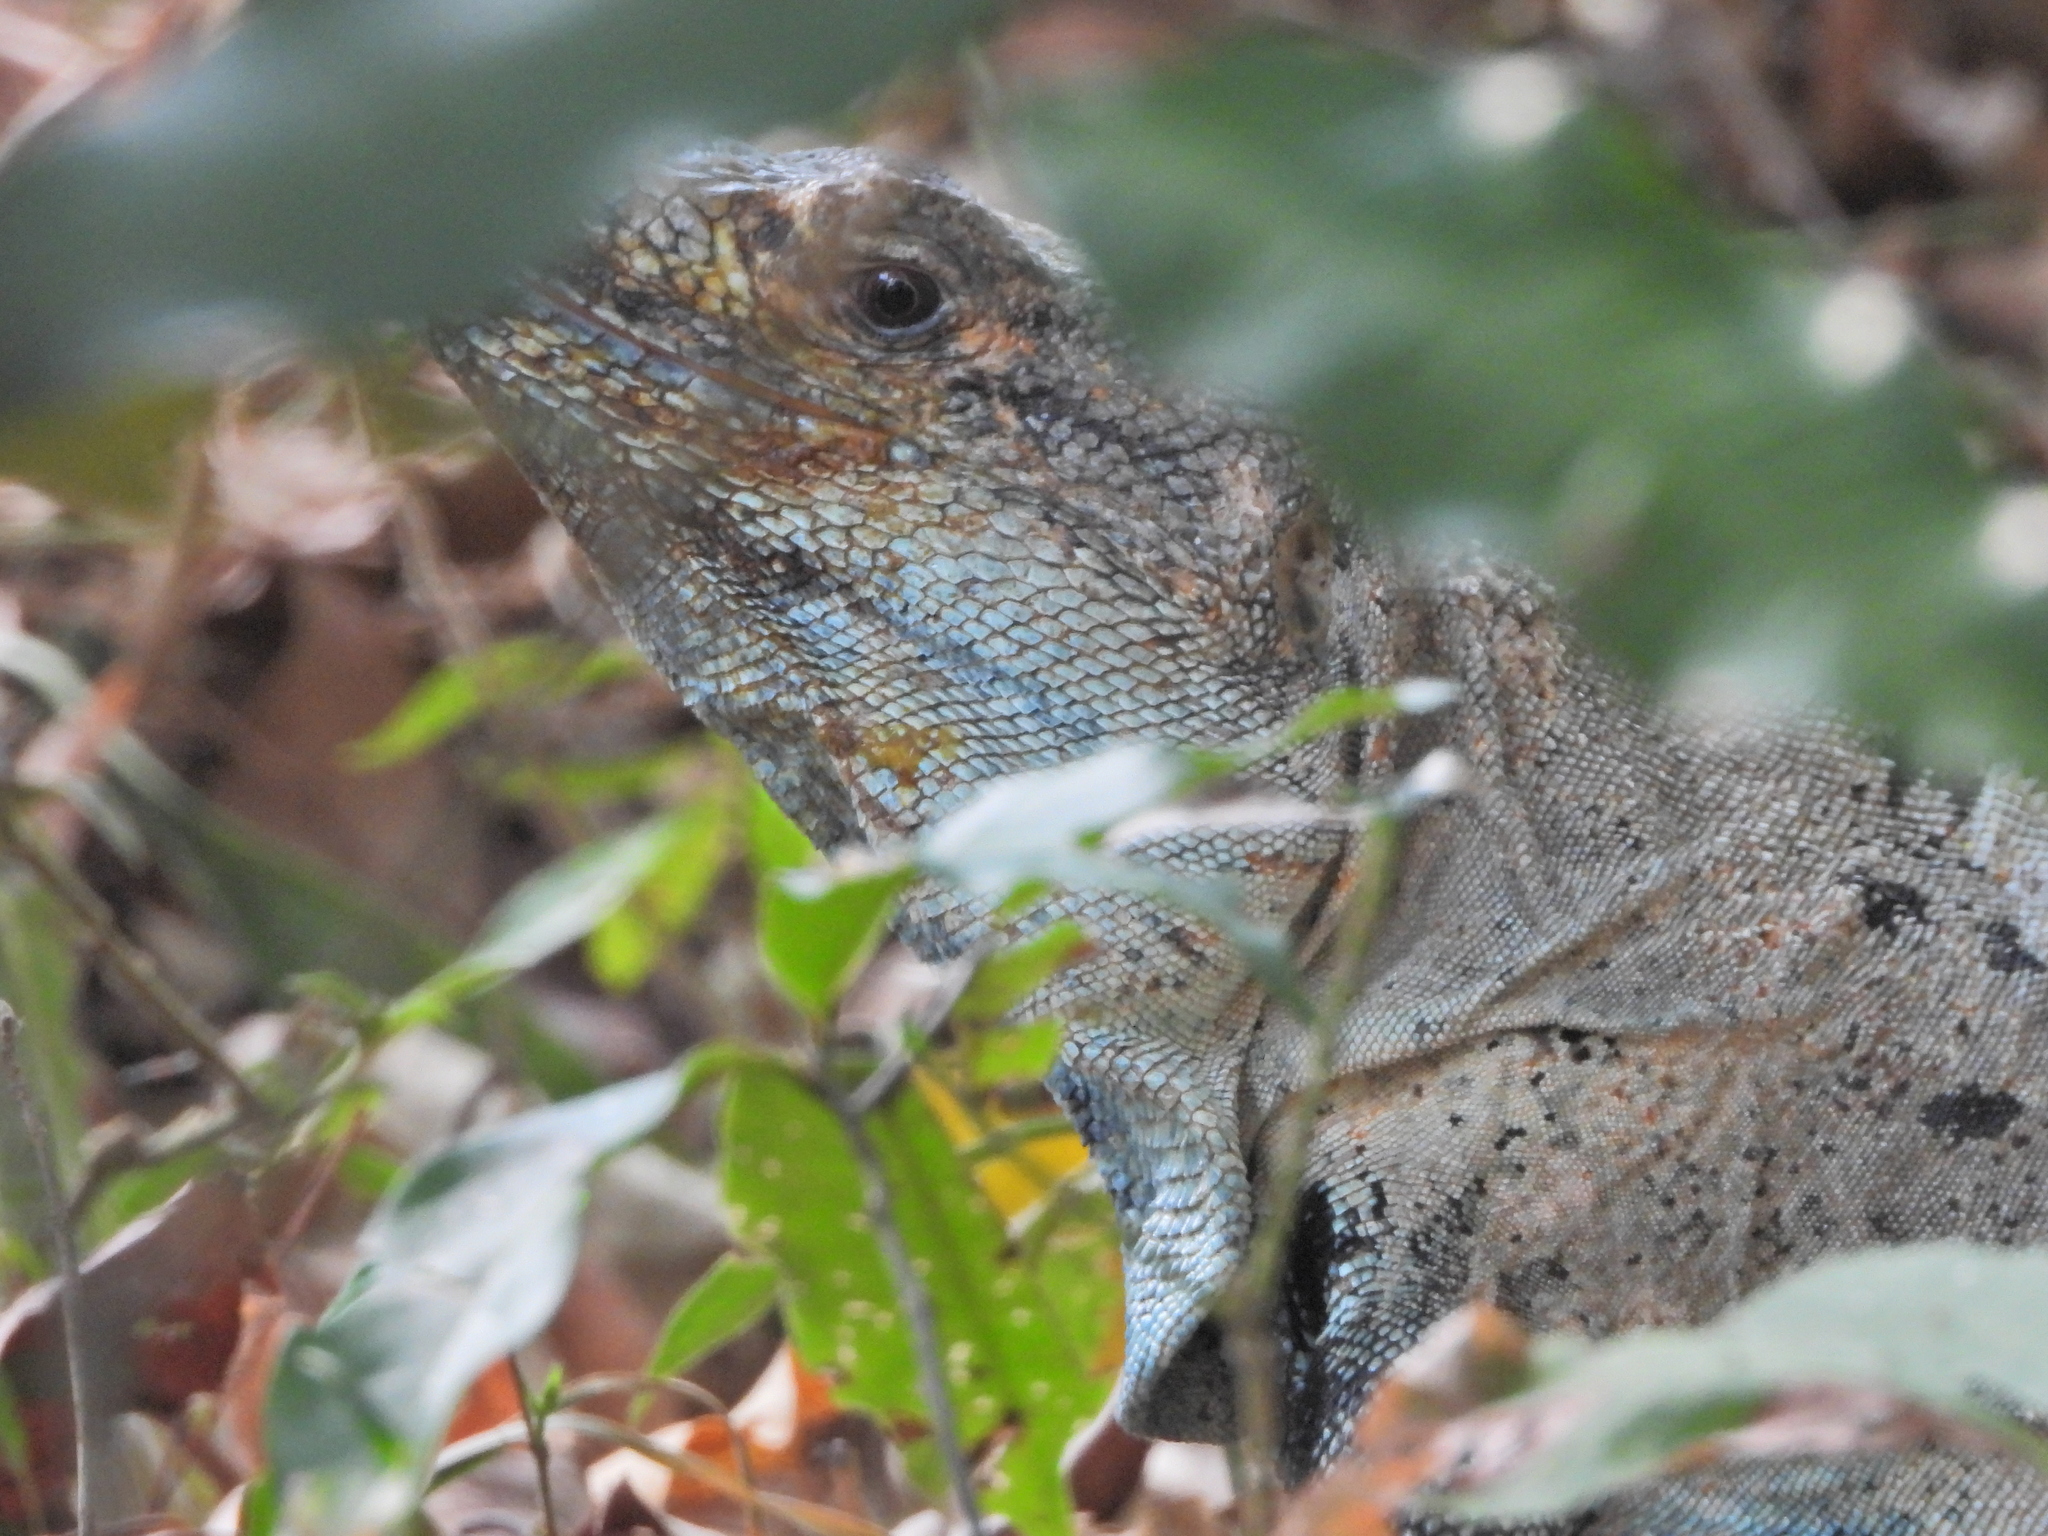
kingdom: Animalia
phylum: Chordata
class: Squamata
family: Iguanidae
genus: Ctenosaura
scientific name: Ctenosaura similis
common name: Black spiny-tailed iguana
